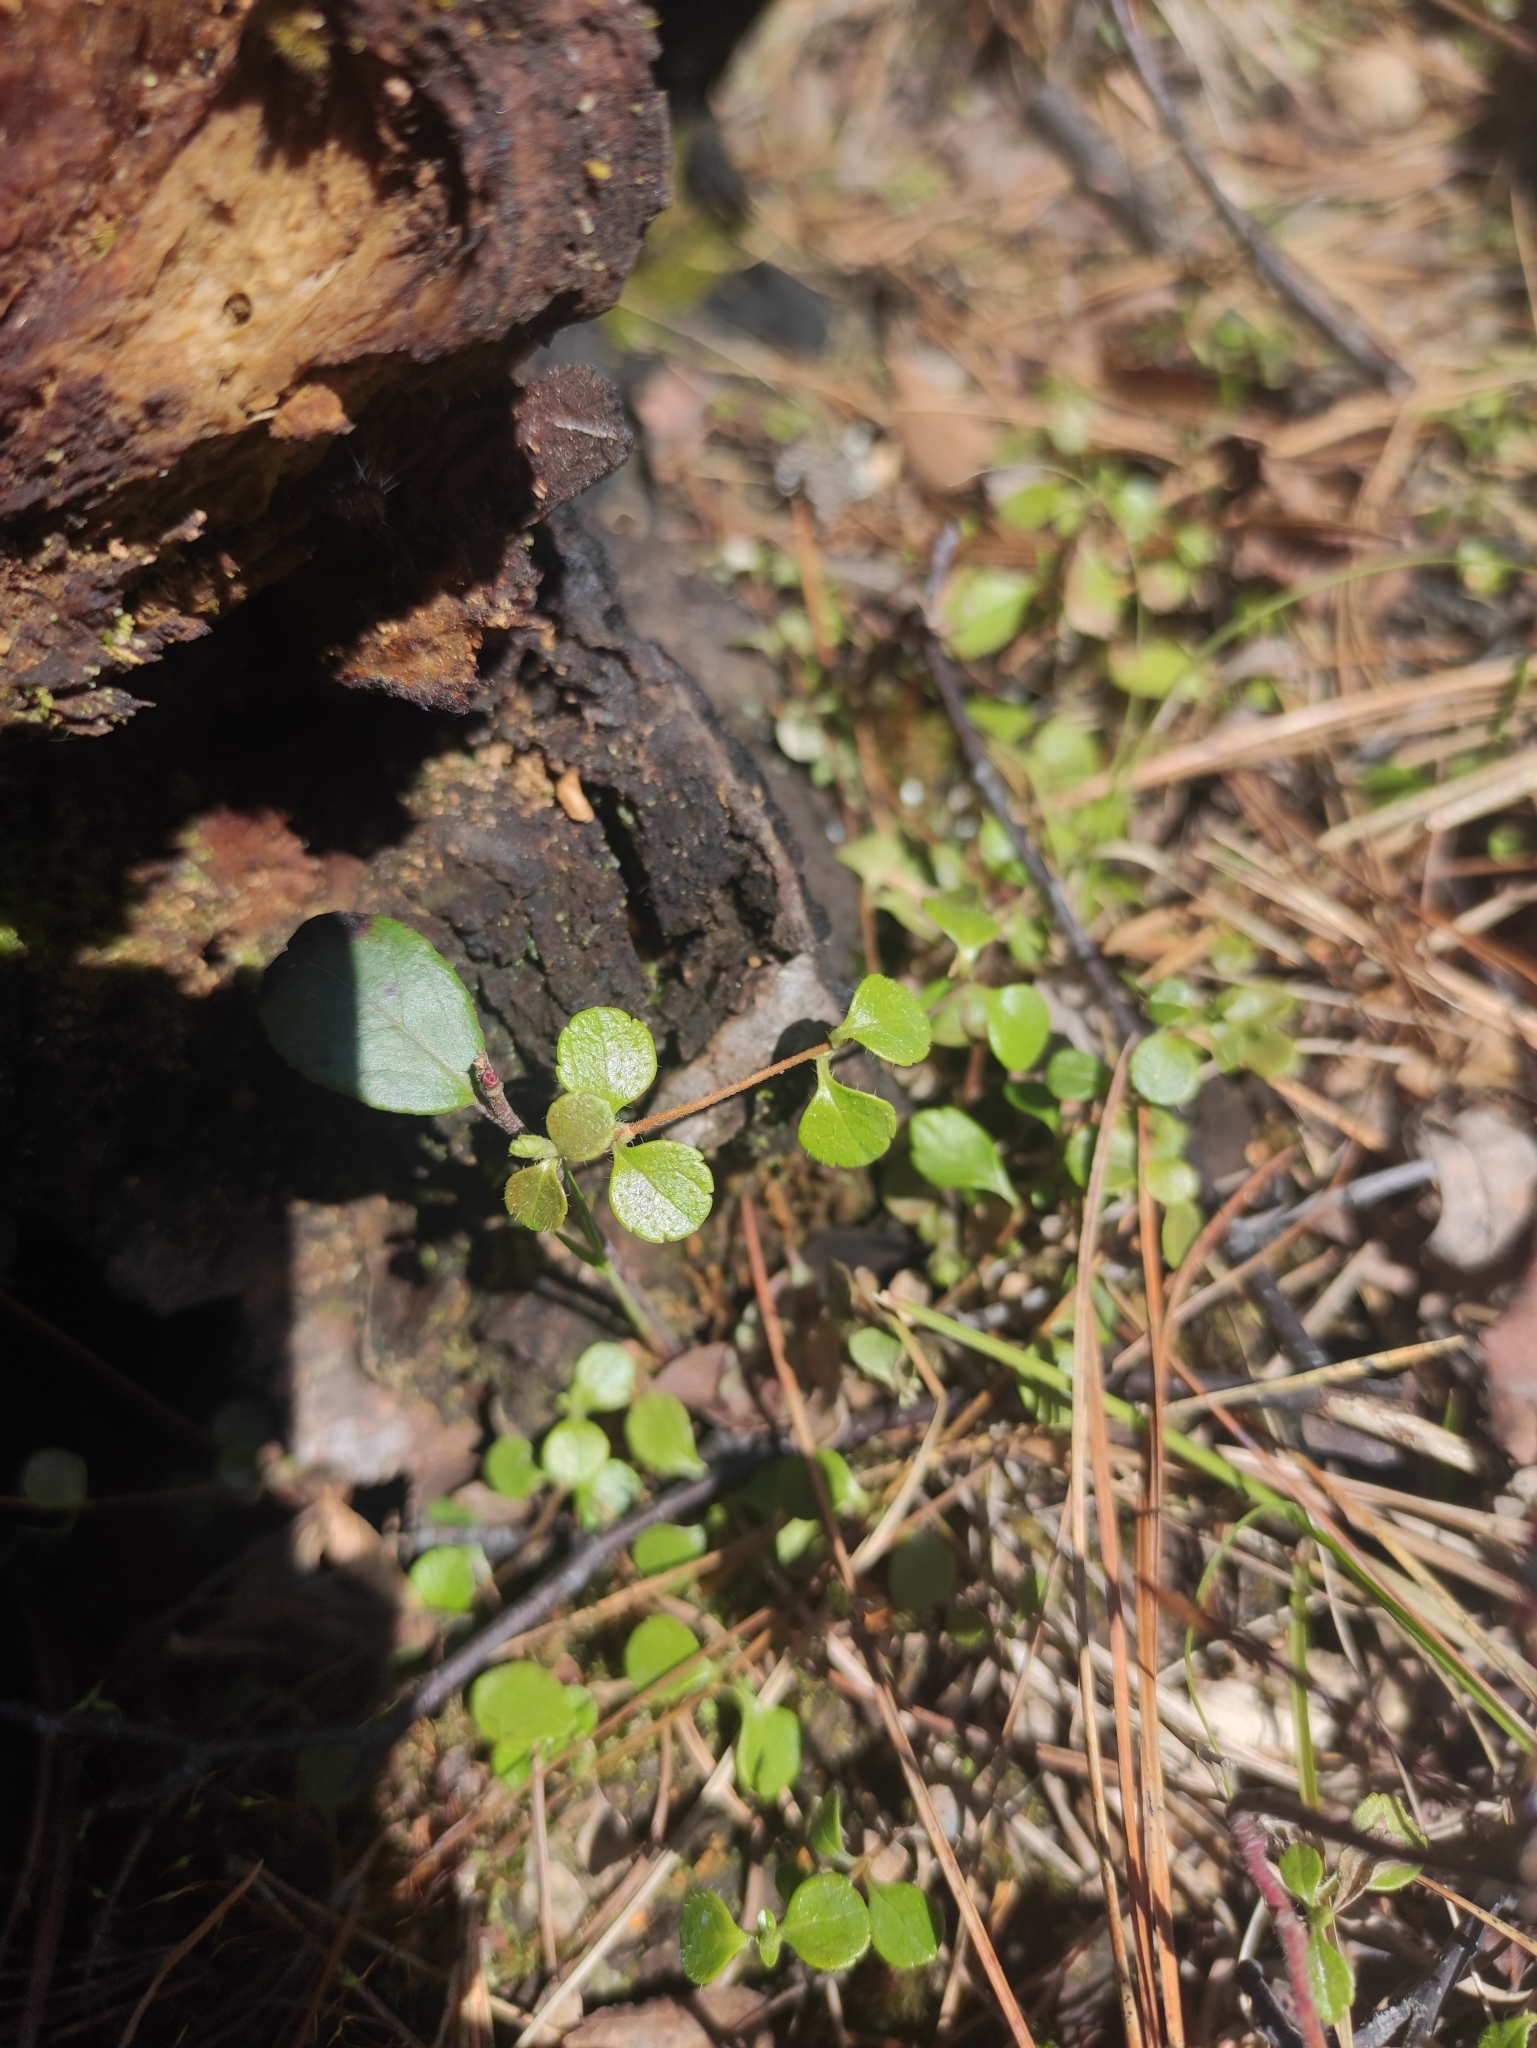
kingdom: Plantae
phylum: Tracheophyta
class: Magnoliopsida
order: Dipsacales
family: Caprifoliaceae
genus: Linnaea
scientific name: Linnaea borealis
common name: Twinflower
